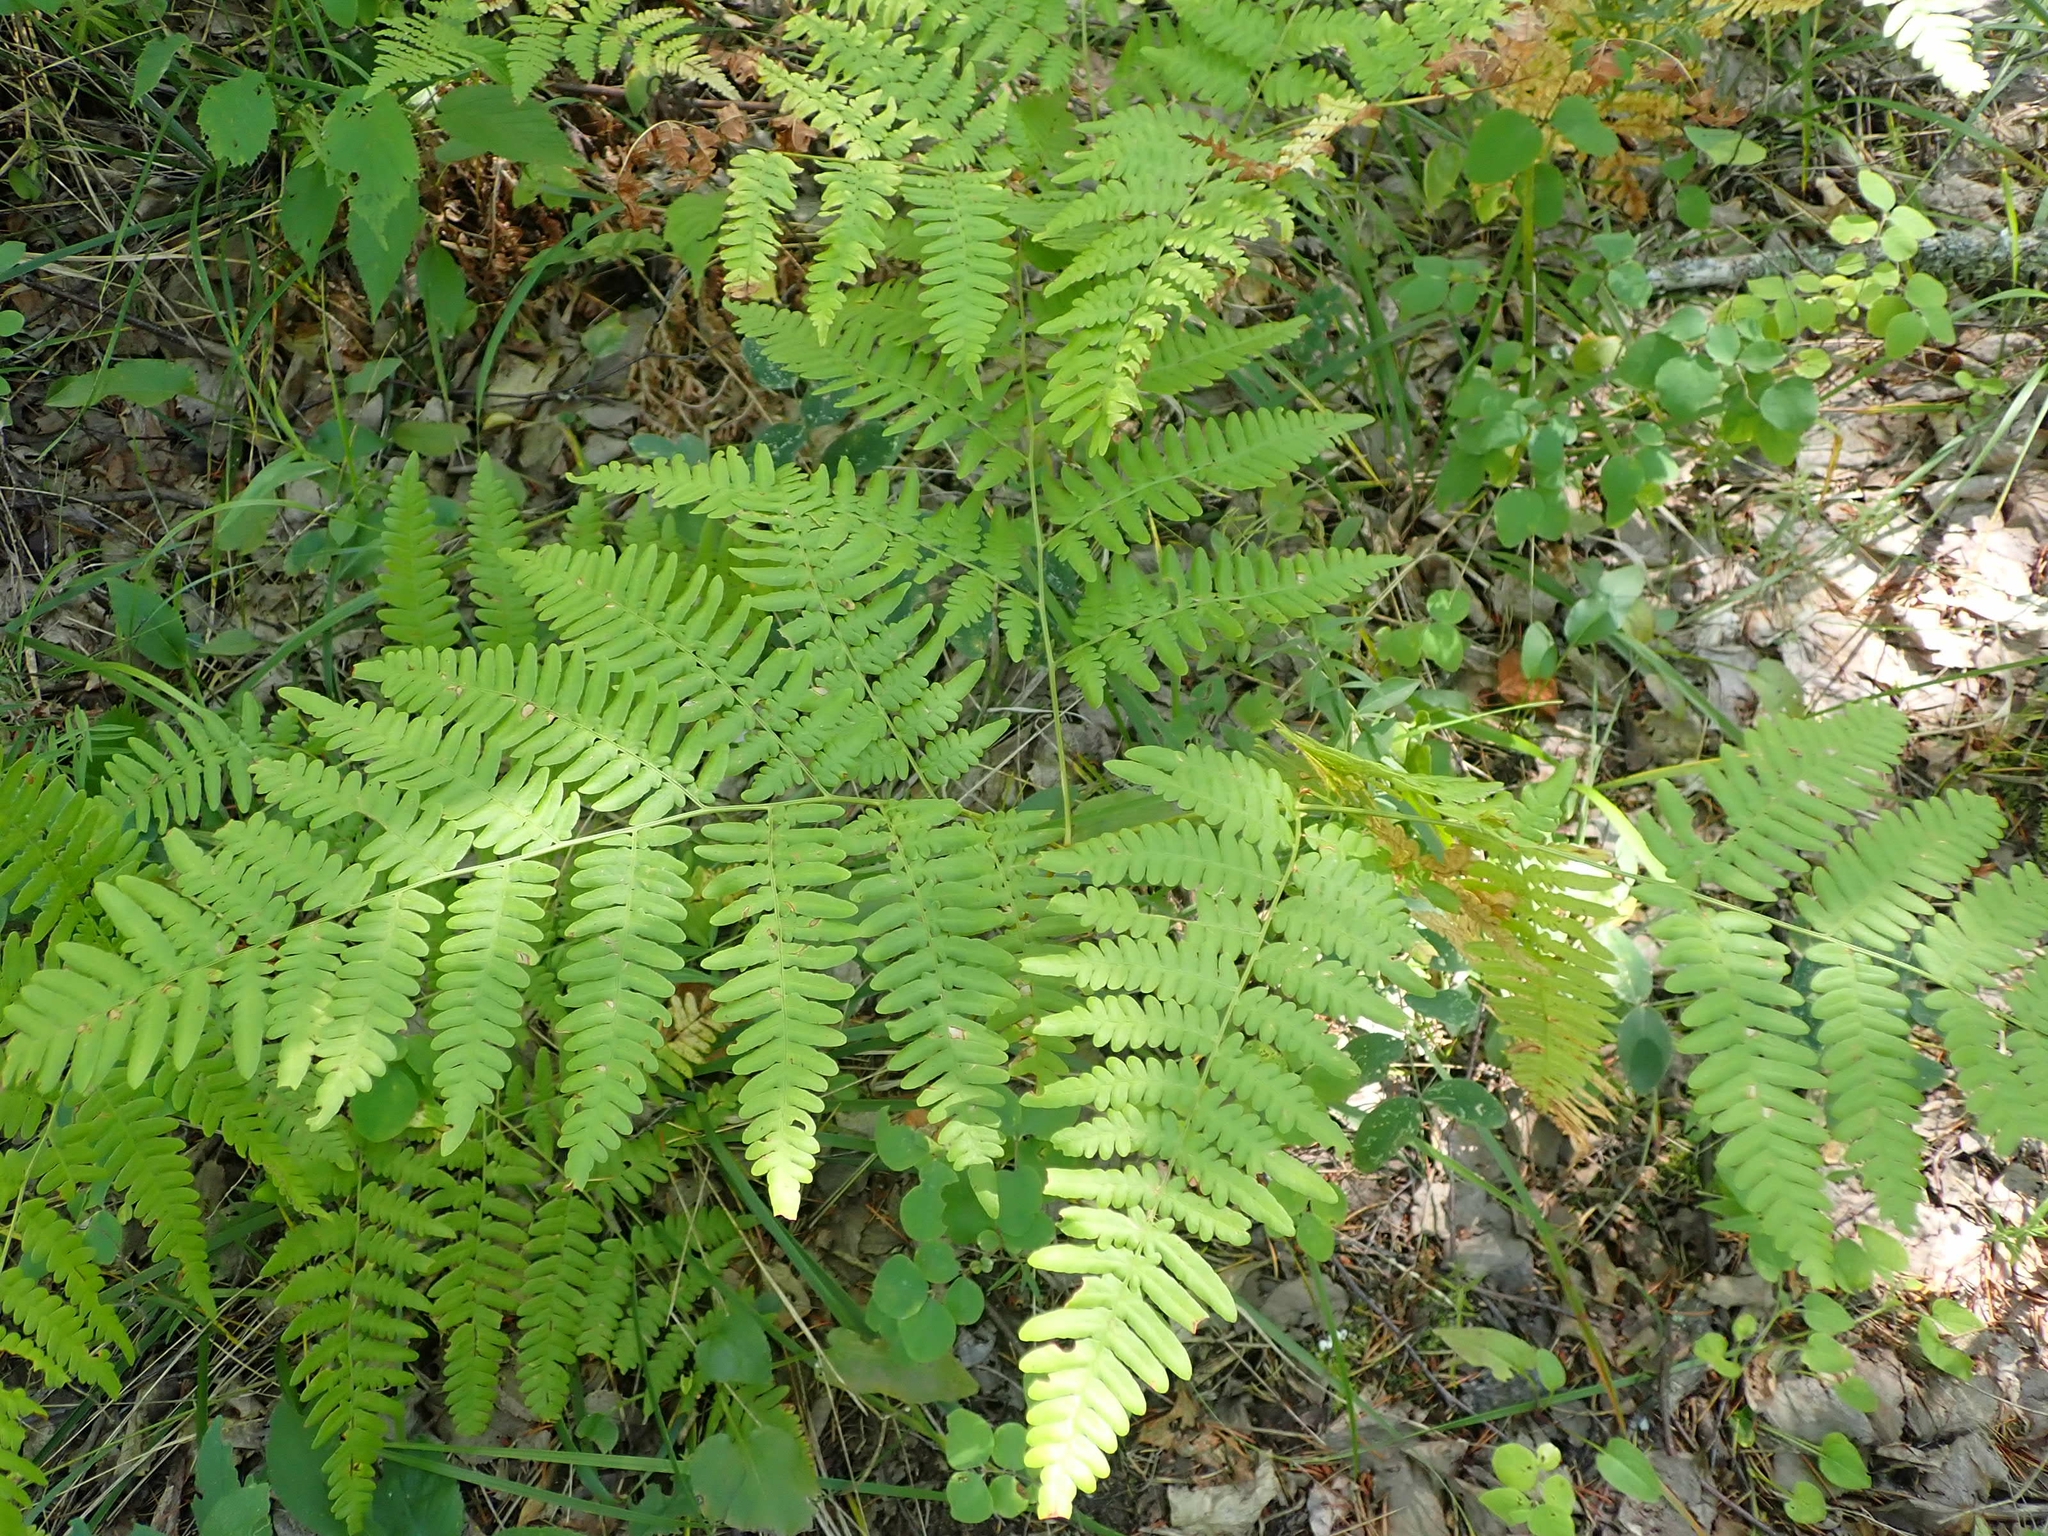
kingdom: Plantae
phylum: Tracheophyta
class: Polypodiopsida
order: Polypodiales
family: Dennstaedtiaceae
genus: Pteridium
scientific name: Pteridium aquilinum
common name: Bracken
